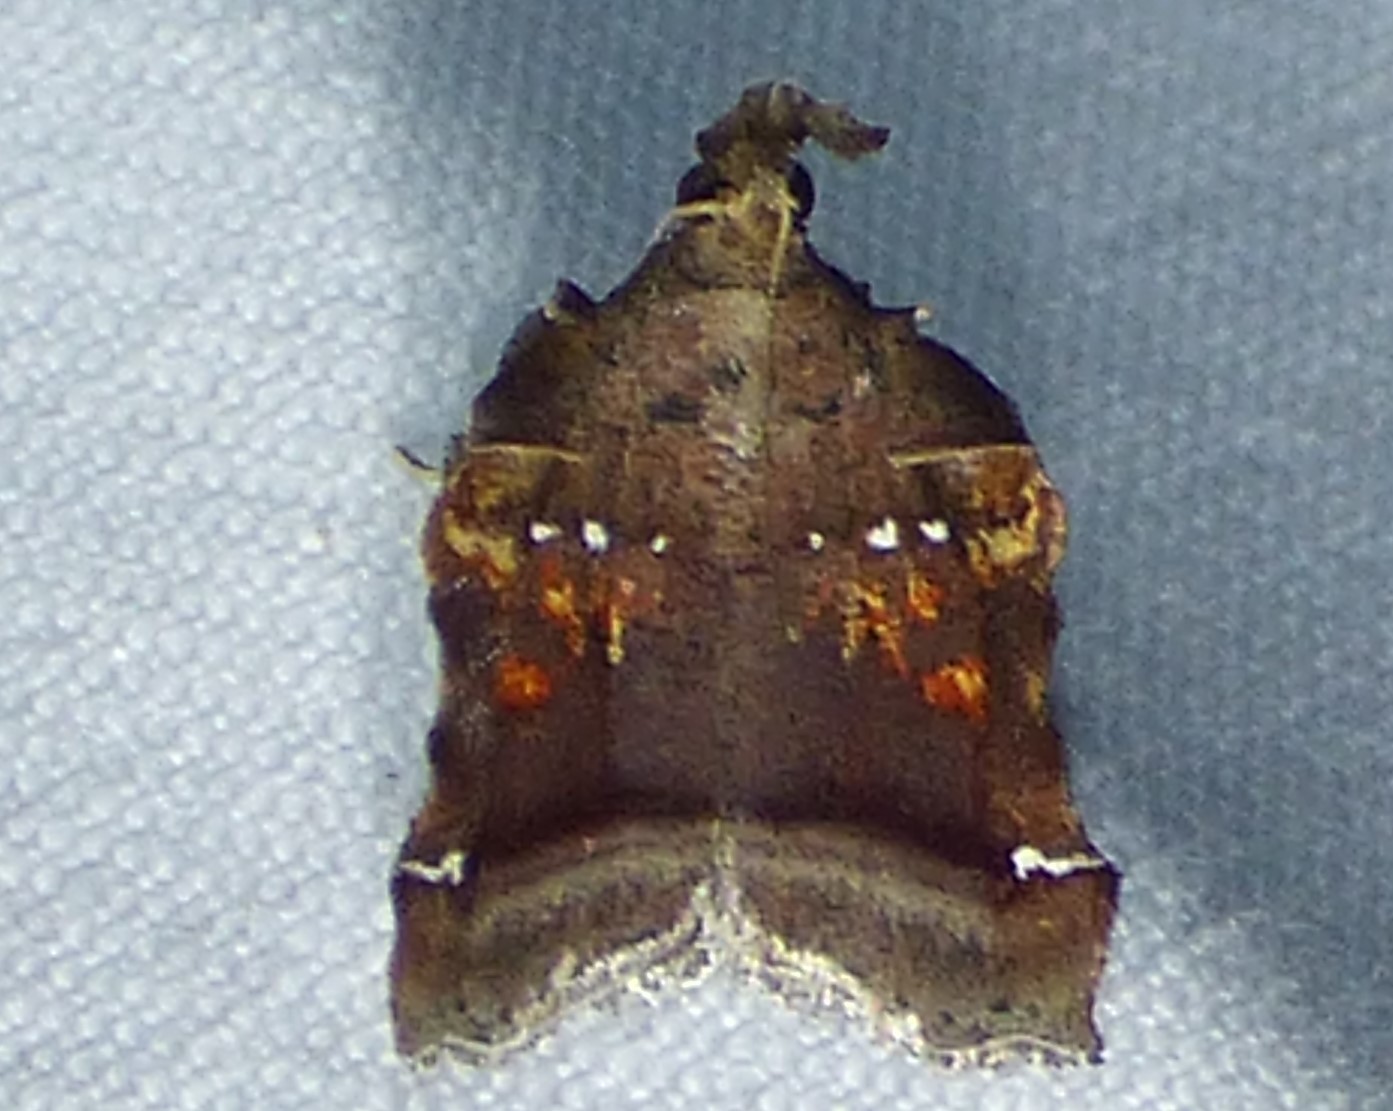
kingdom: Animalia
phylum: Arthropoda
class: Insecta
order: Lepidoptera
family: Pyralidae
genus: Clydonopteron
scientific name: Clydonopteron sacculana
